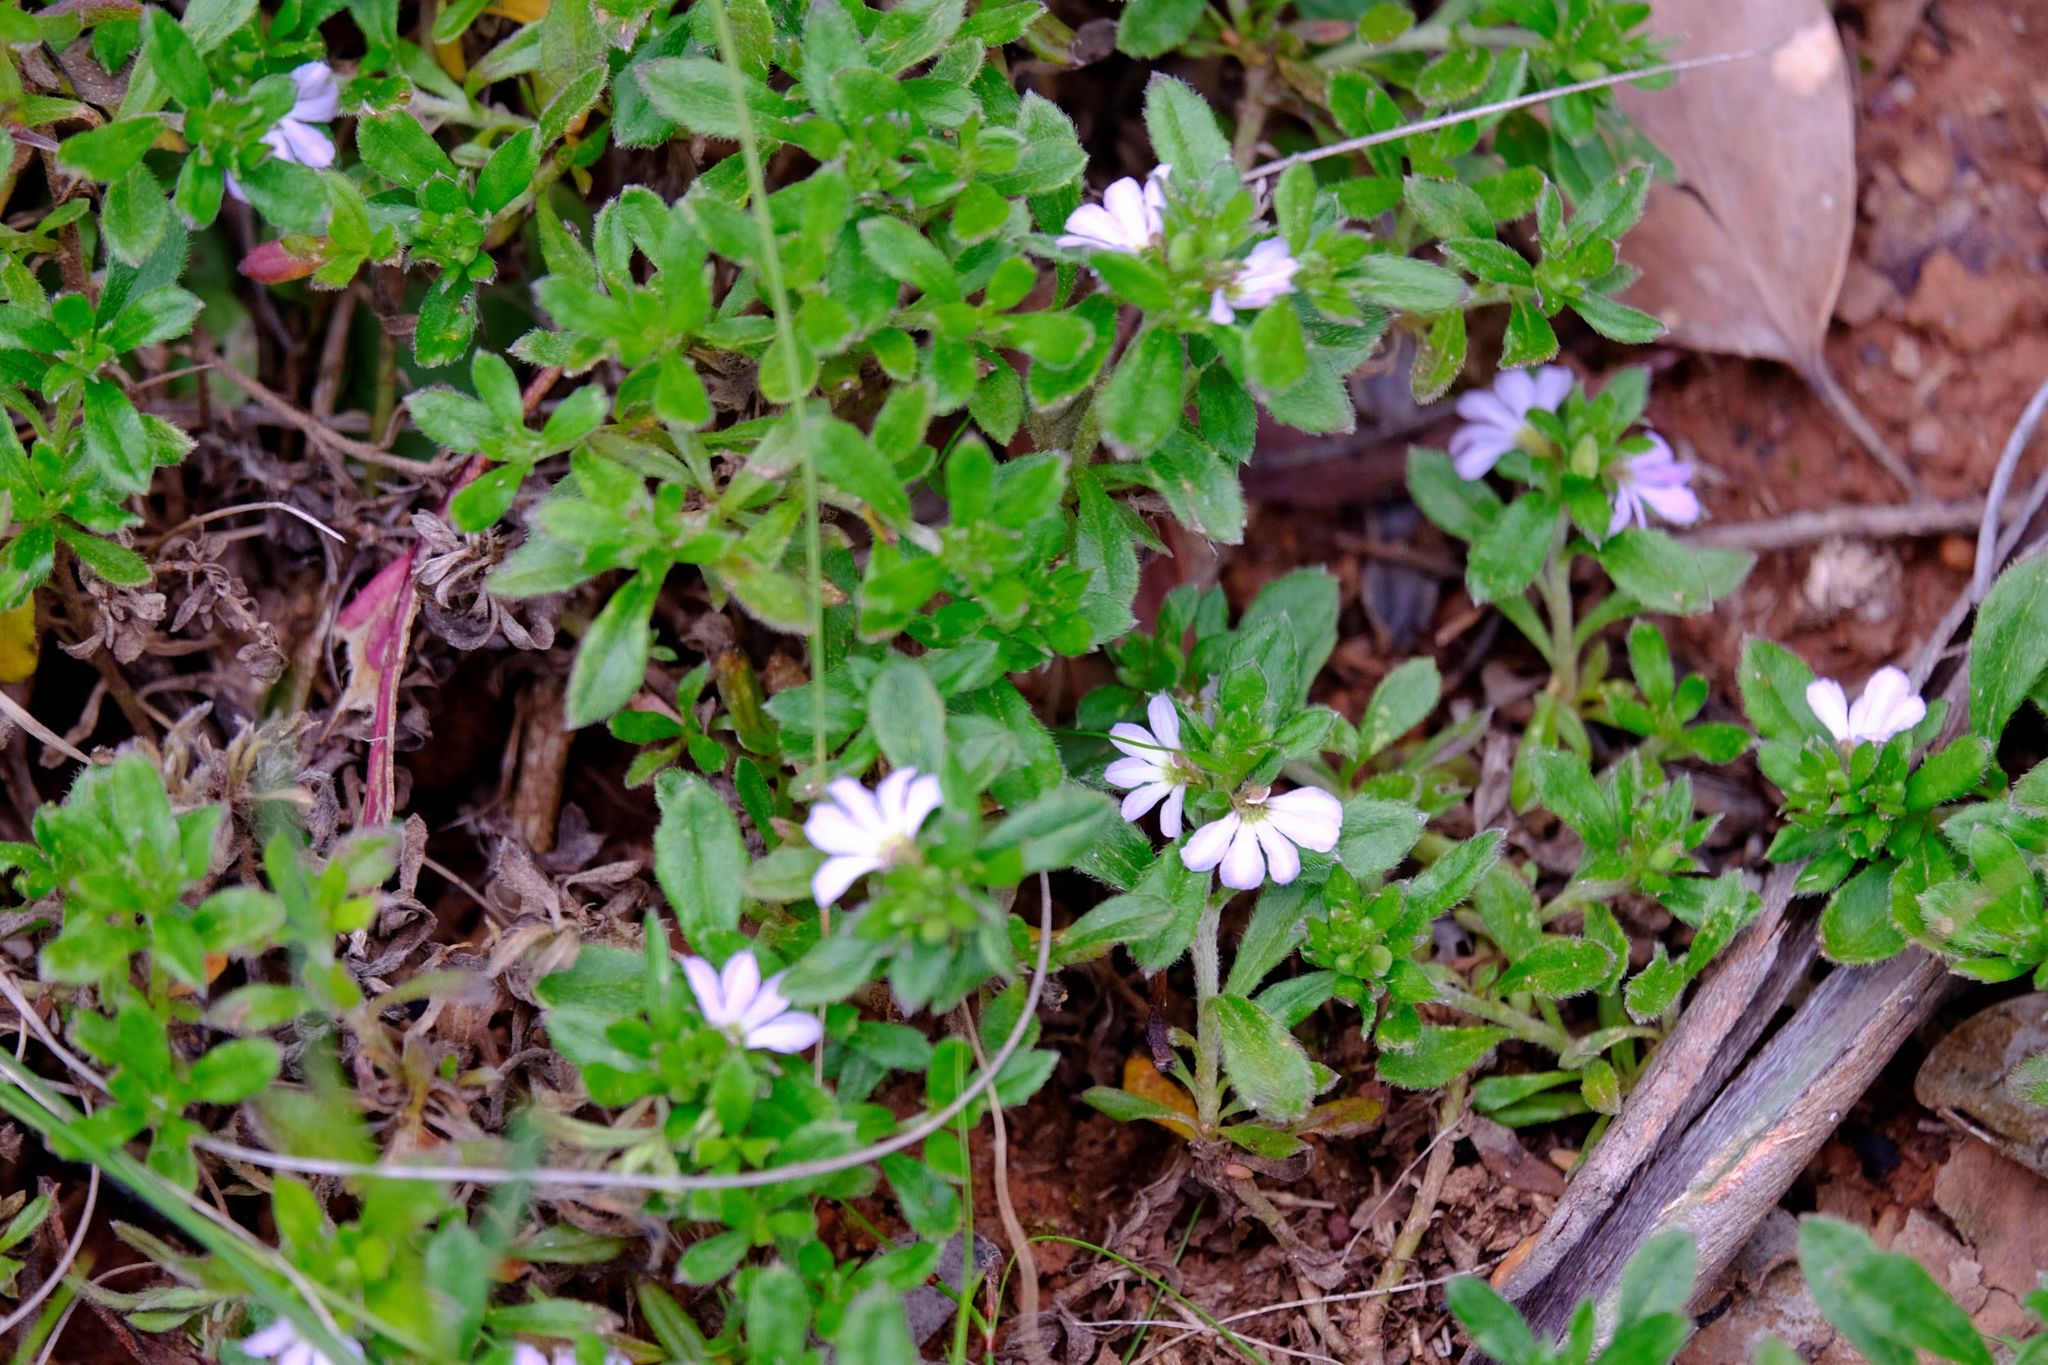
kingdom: Plantae
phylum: Tracheophyta
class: Magnoliopsida
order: Asterales
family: Goodeniaceae
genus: Scaevola
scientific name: Scaevola albida
